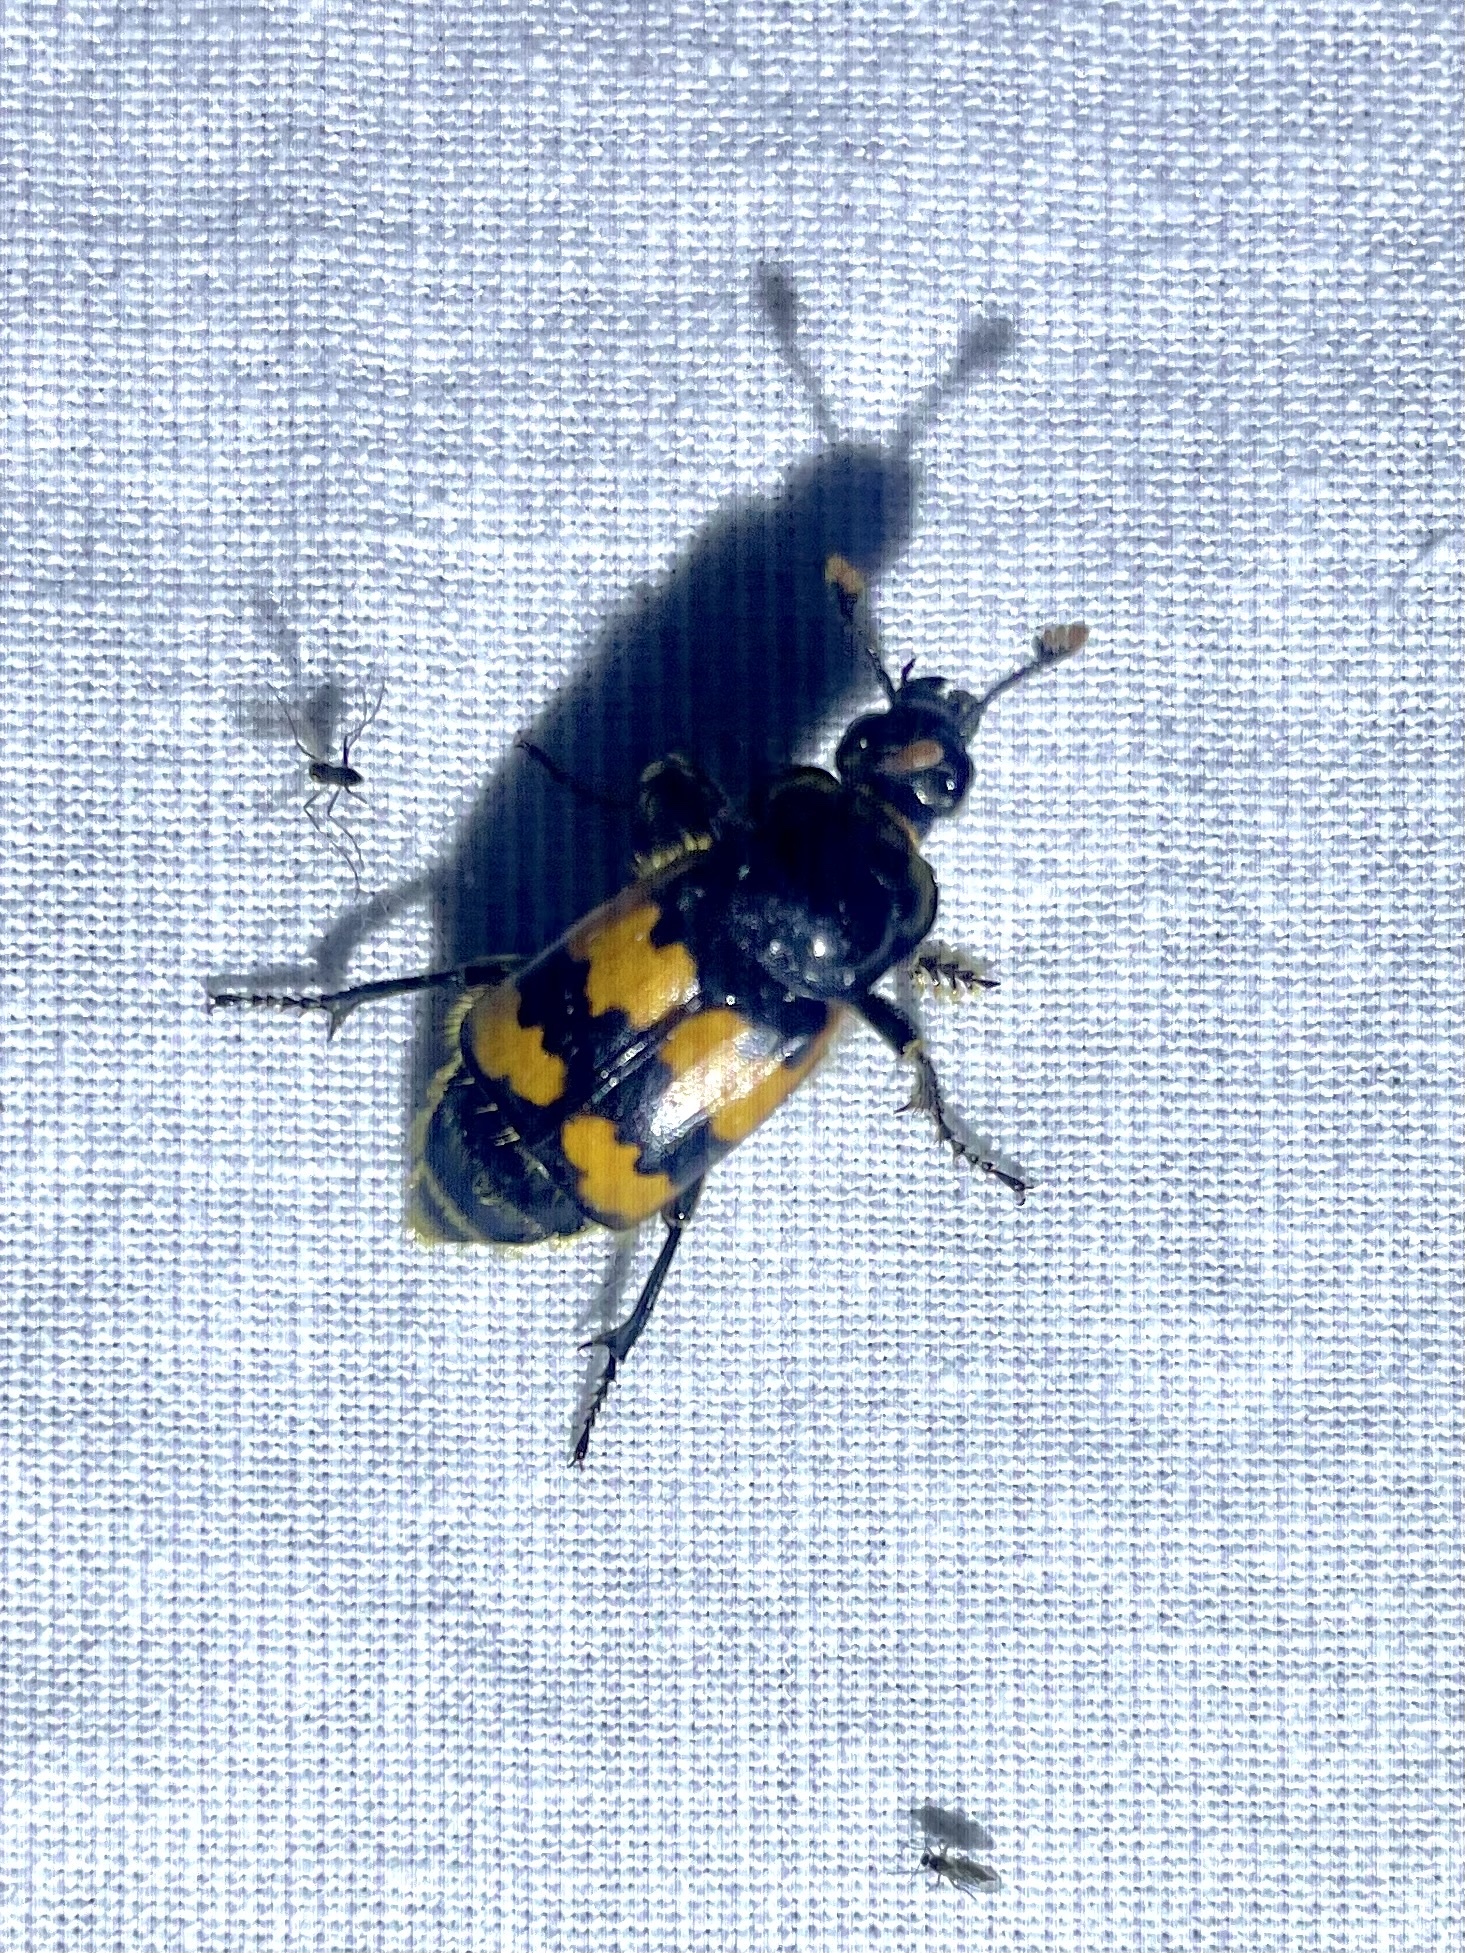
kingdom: Animalia
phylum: Arthropoda
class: Insecta
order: Coleoptera
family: Staphylinidae
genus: Nicrophorus
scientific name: Nicrophorus vespillo
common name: Common burying beetle
